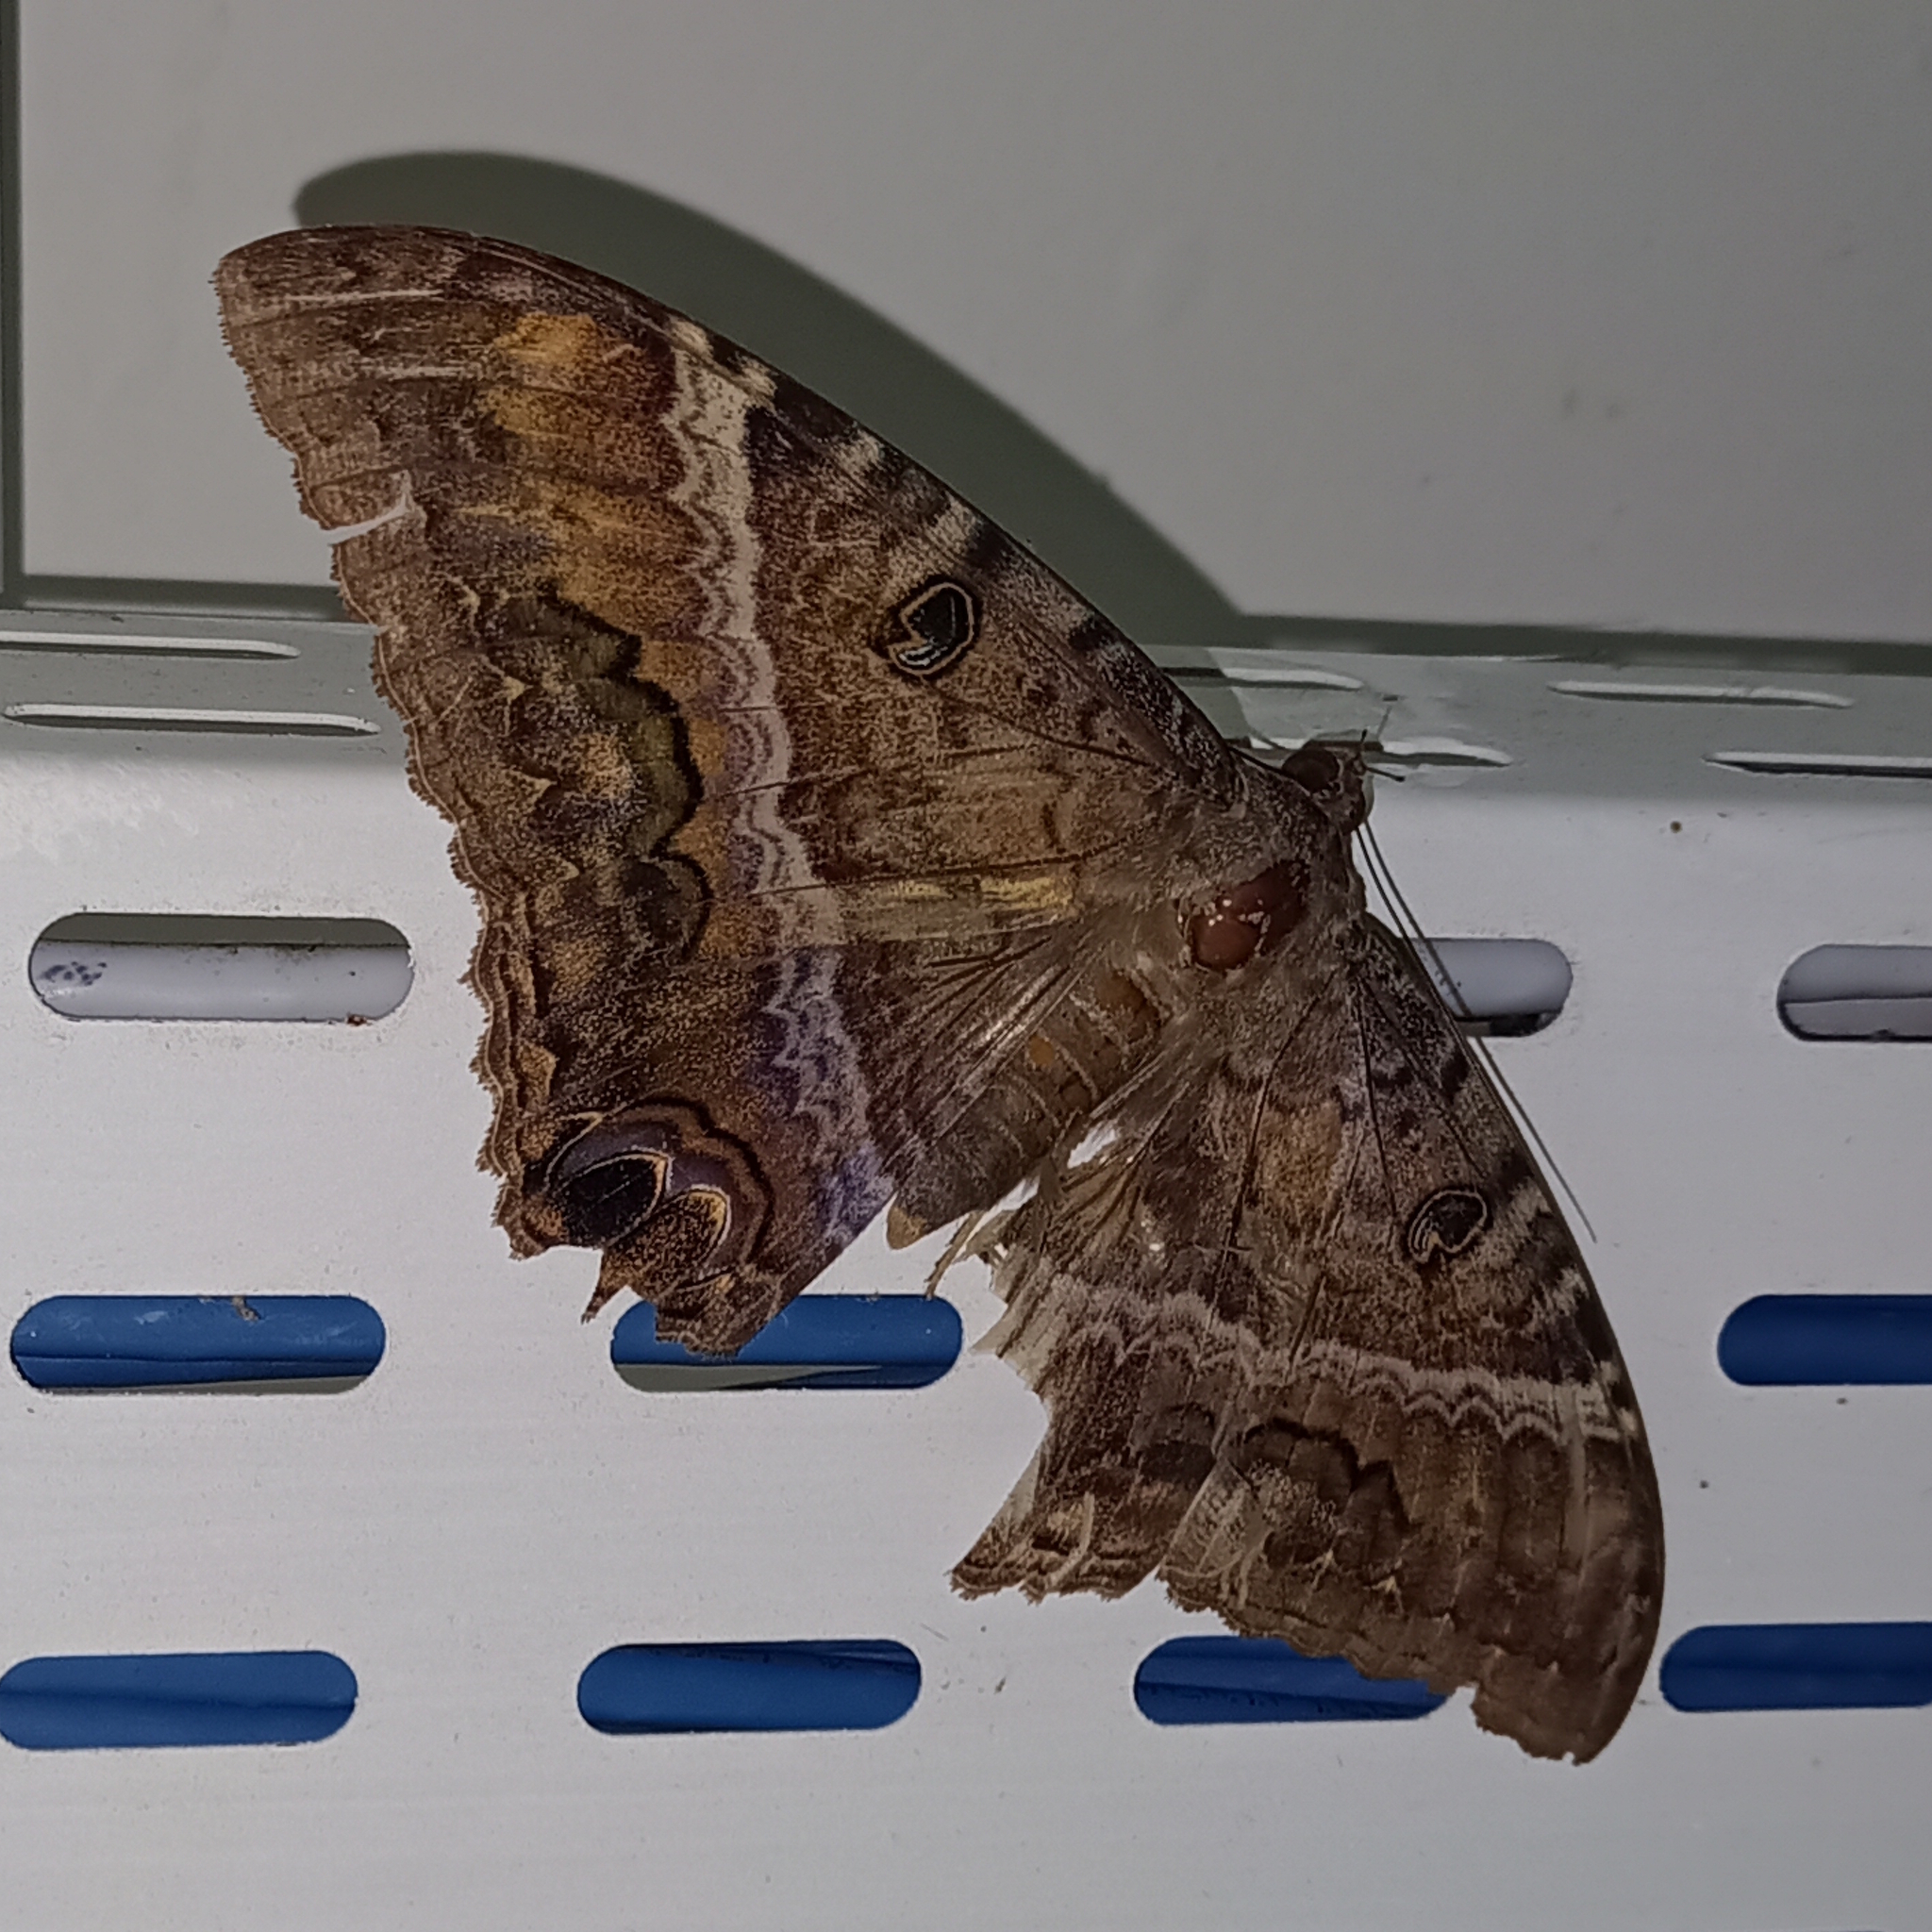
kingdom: Animalia
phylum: Arthropoda
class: Insecta
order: Lepidoptera
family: Erebidae
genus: Ascalapha
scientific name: Ascalapha odorata
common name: Black witch
